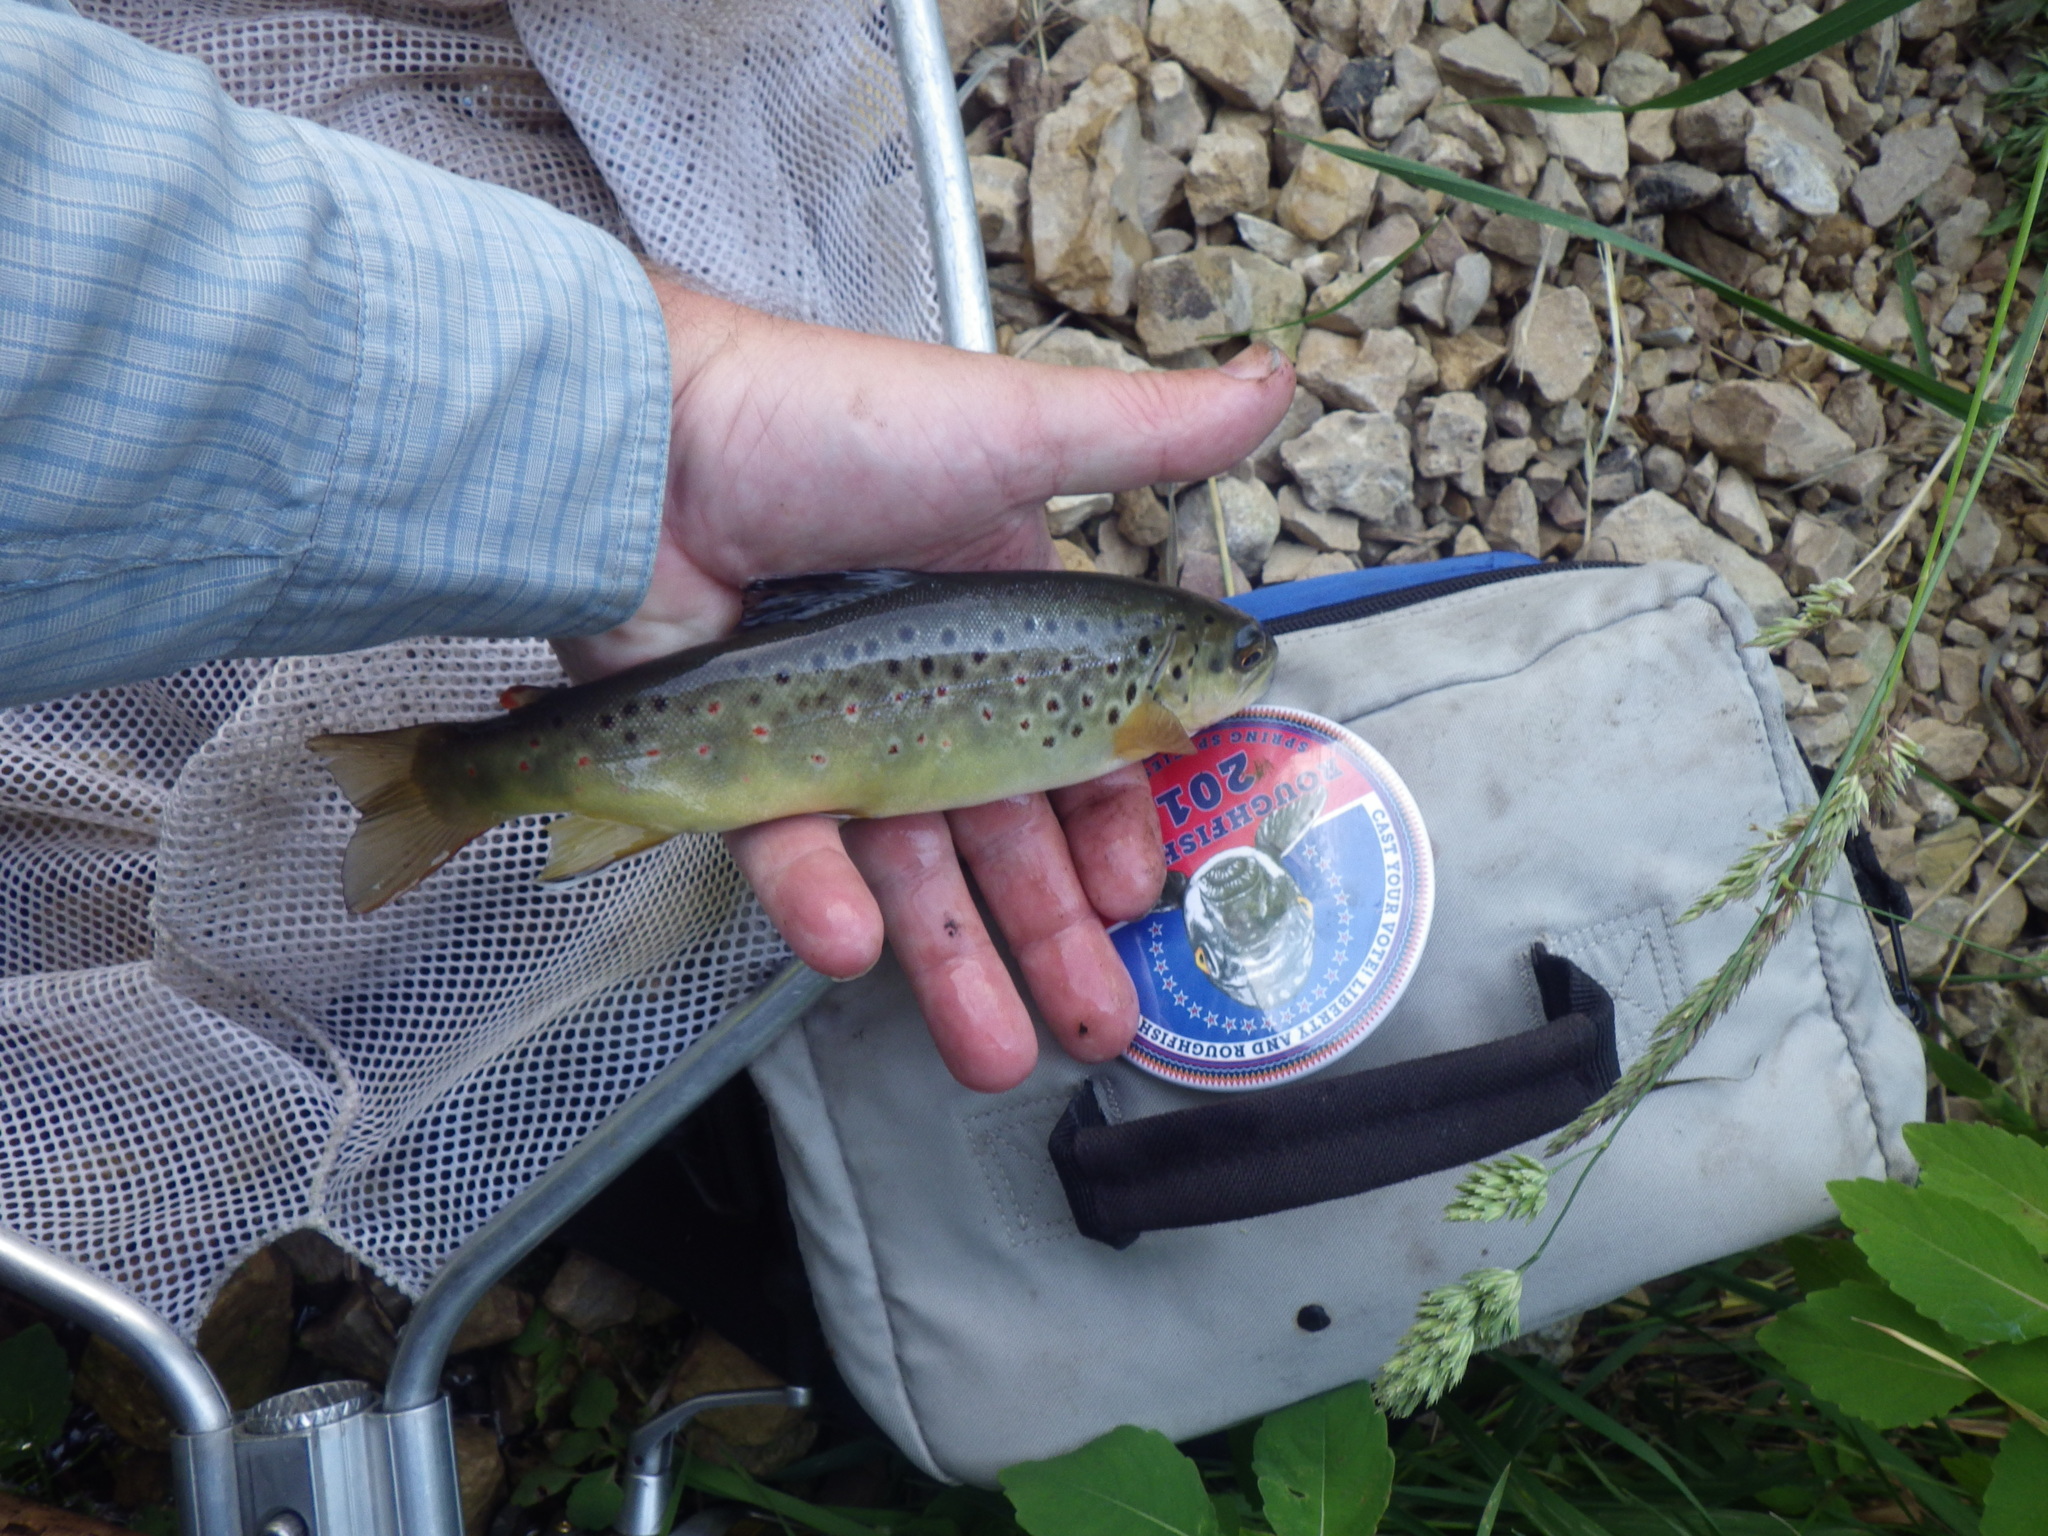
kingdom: Animalia
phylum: Chordata
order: Salmoniformes
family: Salmonidae
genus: Salmo
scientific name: Salmo trutta
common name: Brown trout
